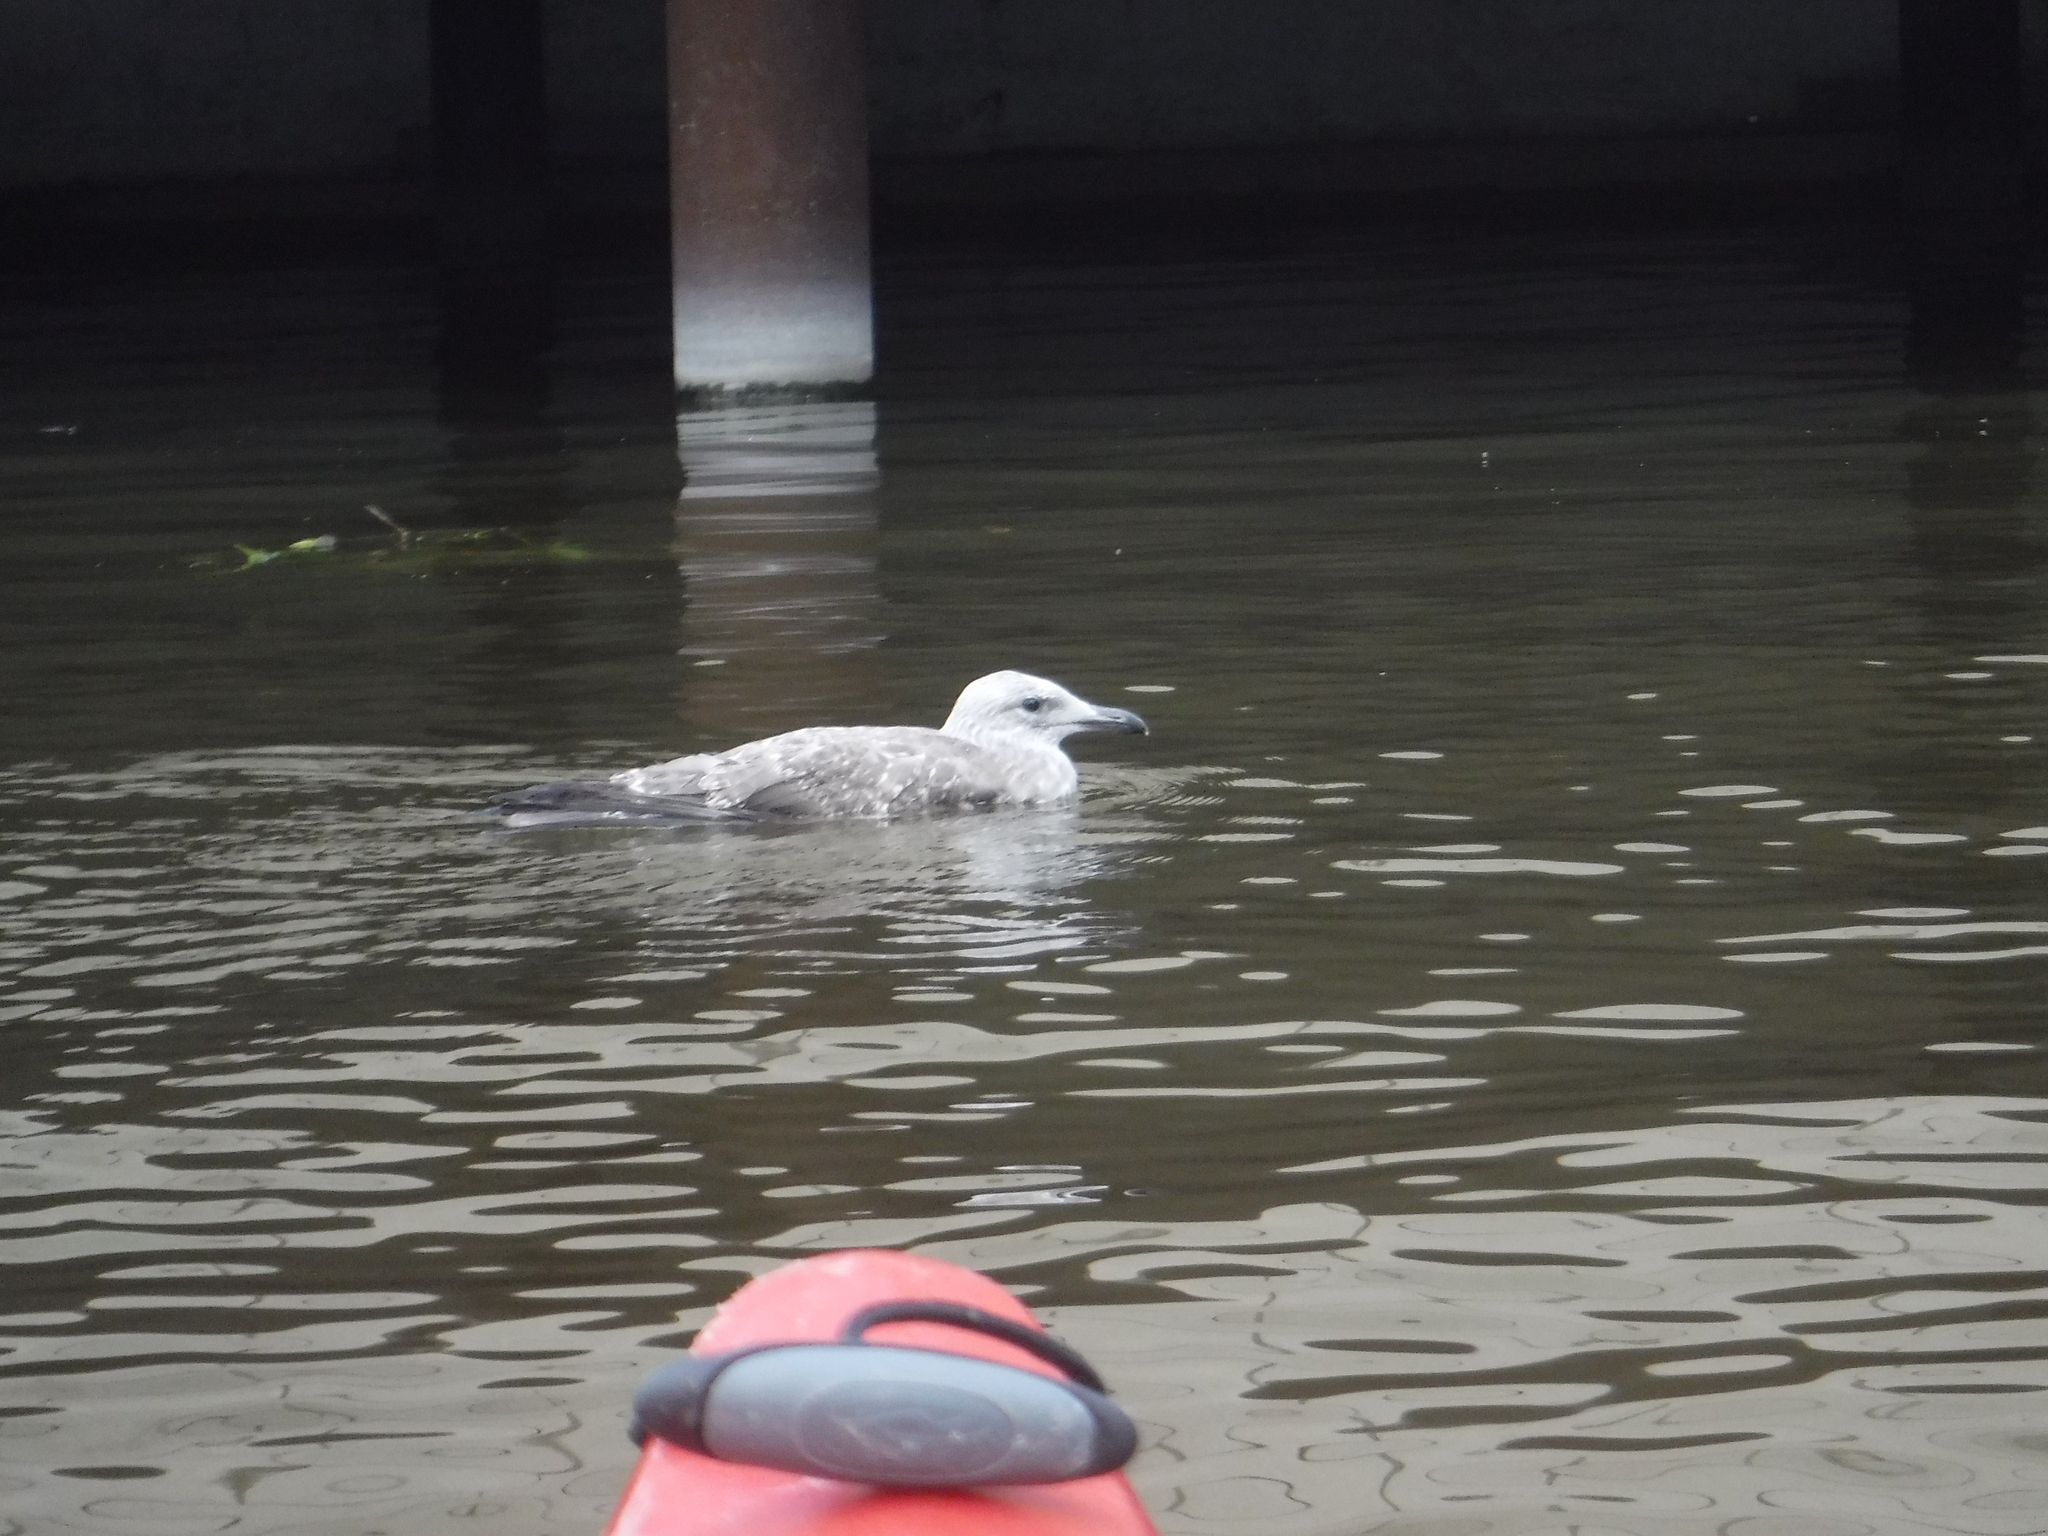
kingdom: Animalia
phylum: Chordata
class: Aves
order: Charadriiformes
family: Laridae
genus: Larus
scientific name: Larus argentatus
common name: Herring gull
